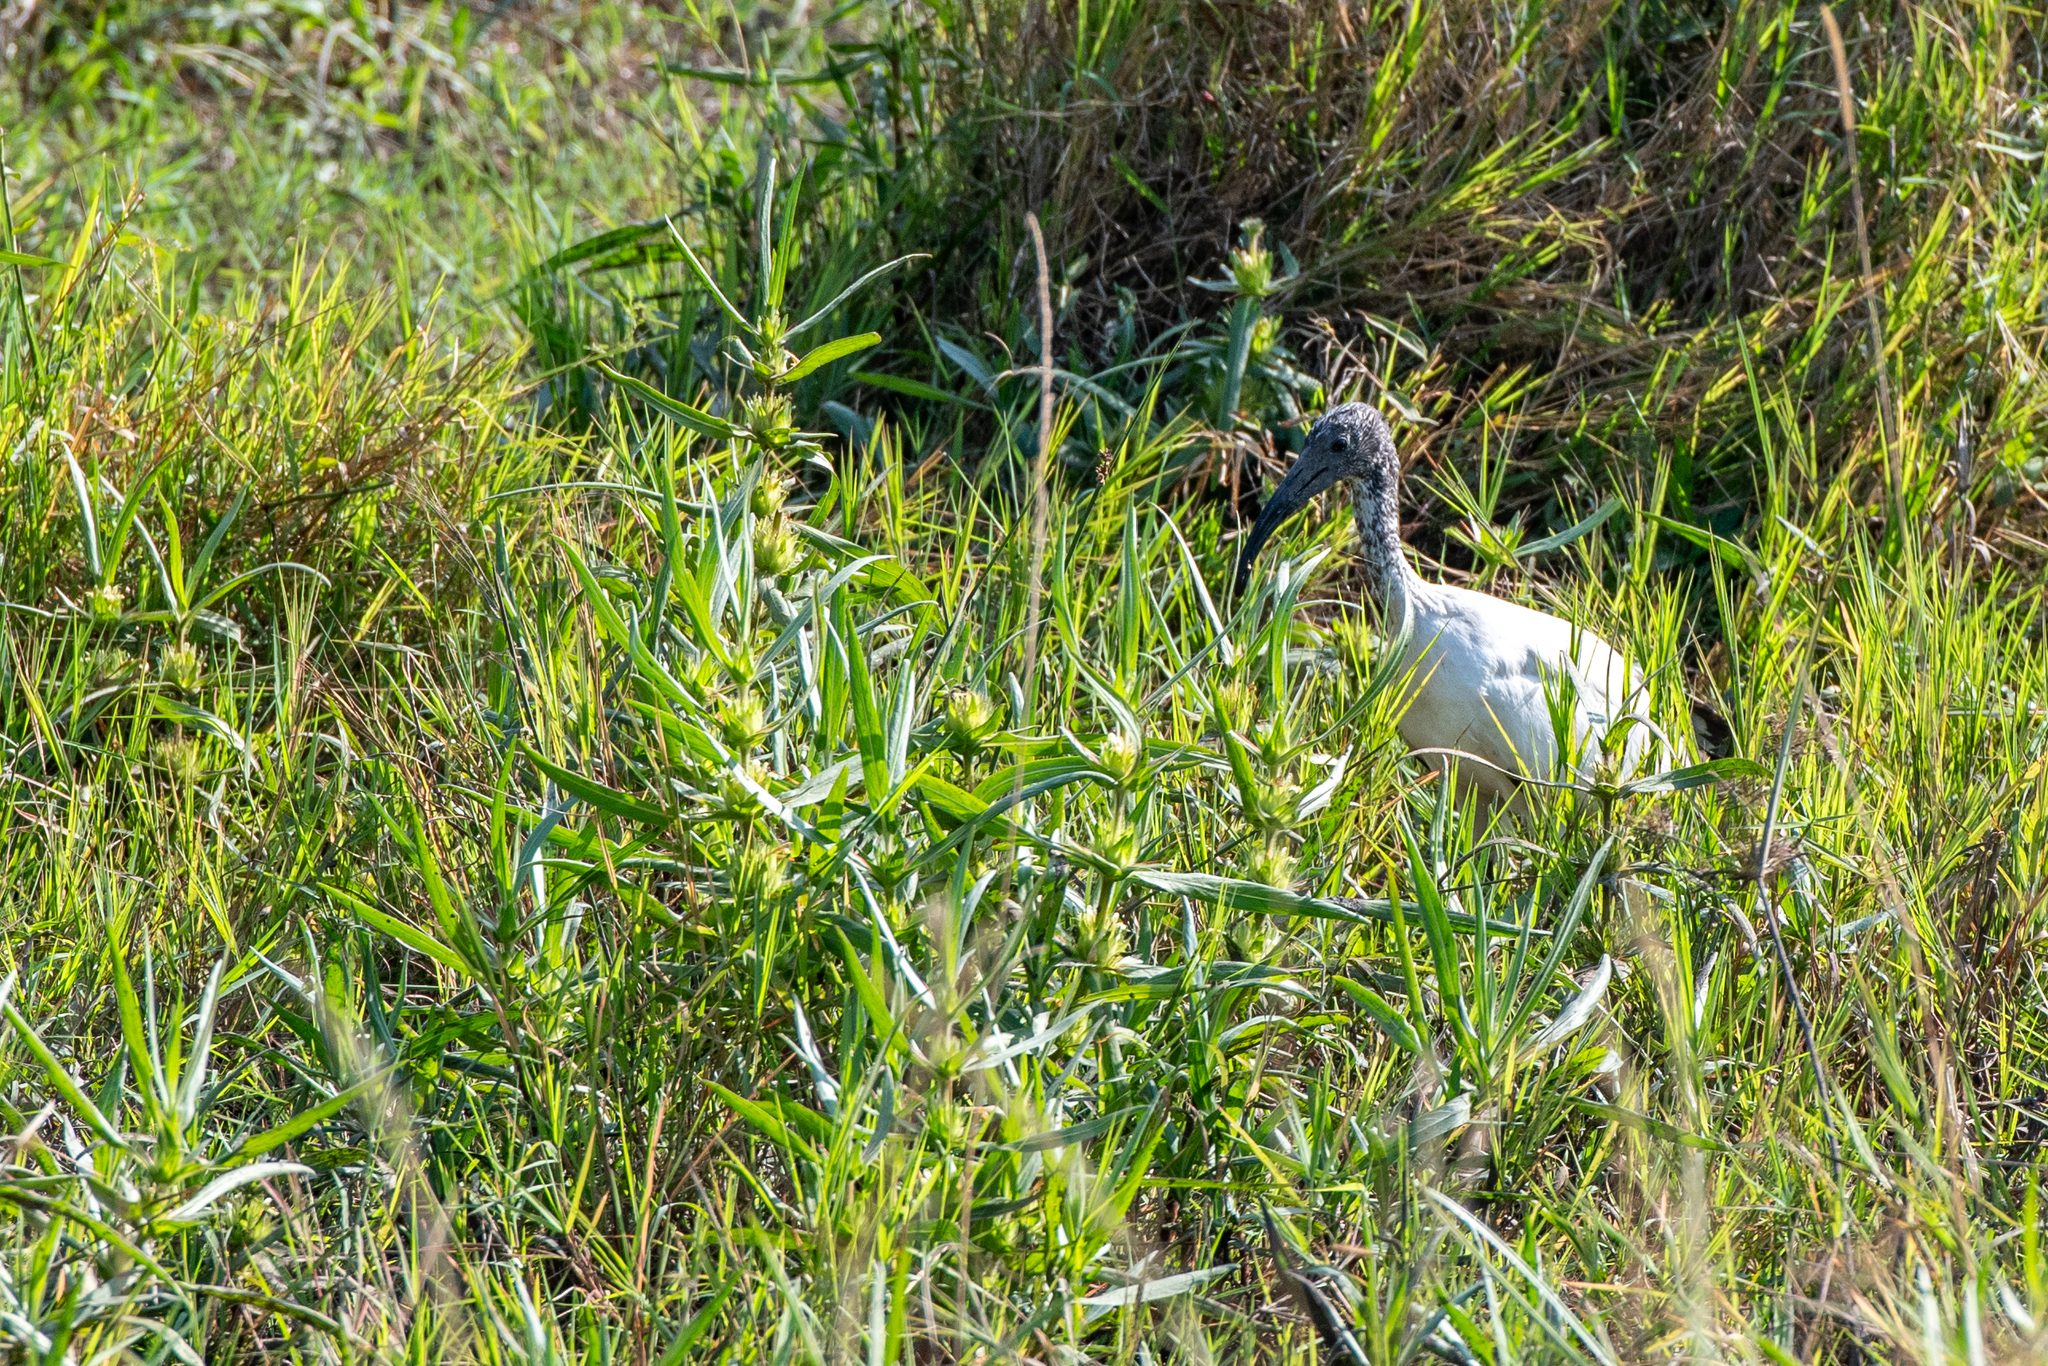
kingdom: Animalia
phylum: Chordata
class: Aves
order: Pelecaniformes
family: Threskiornithidae
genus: Threskiornis
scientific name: Threskiornis aethiopicus
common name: Sacred ibis
